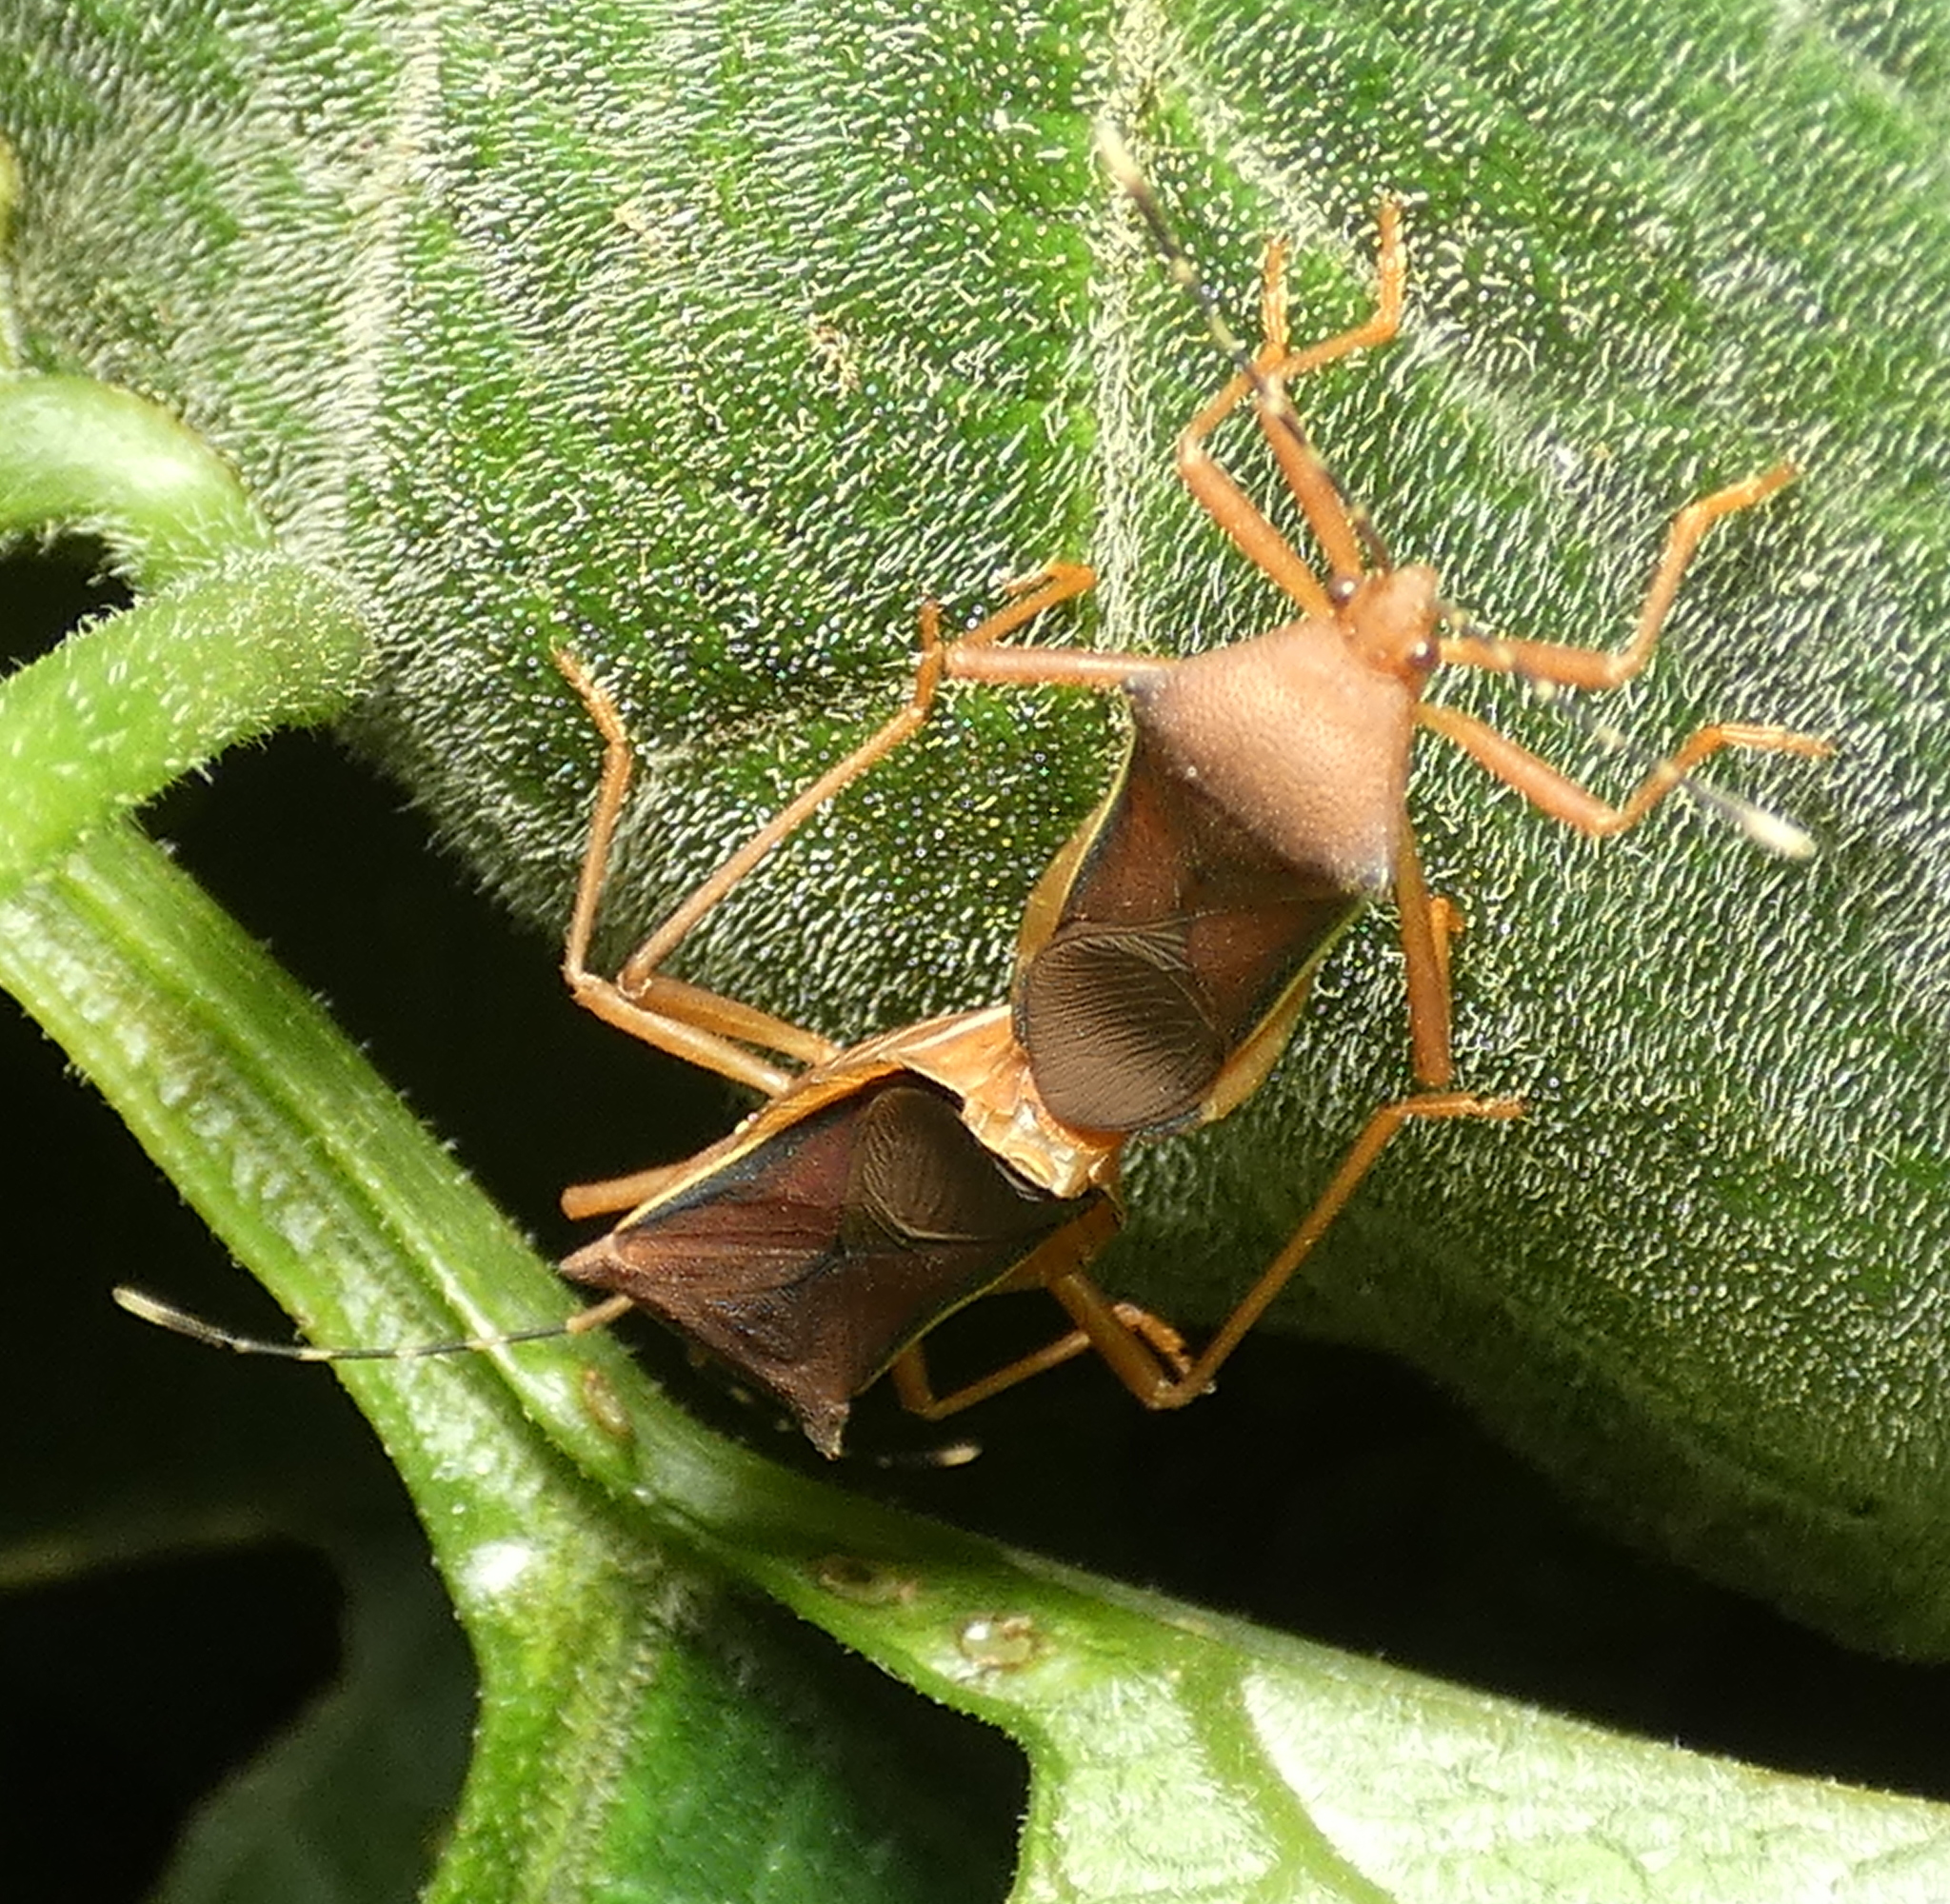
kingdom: Animalia
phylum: Arthropoda
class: Insecta
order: Hemiptera
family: Coreidae
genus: Anasa
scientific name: Anasa varicornis
